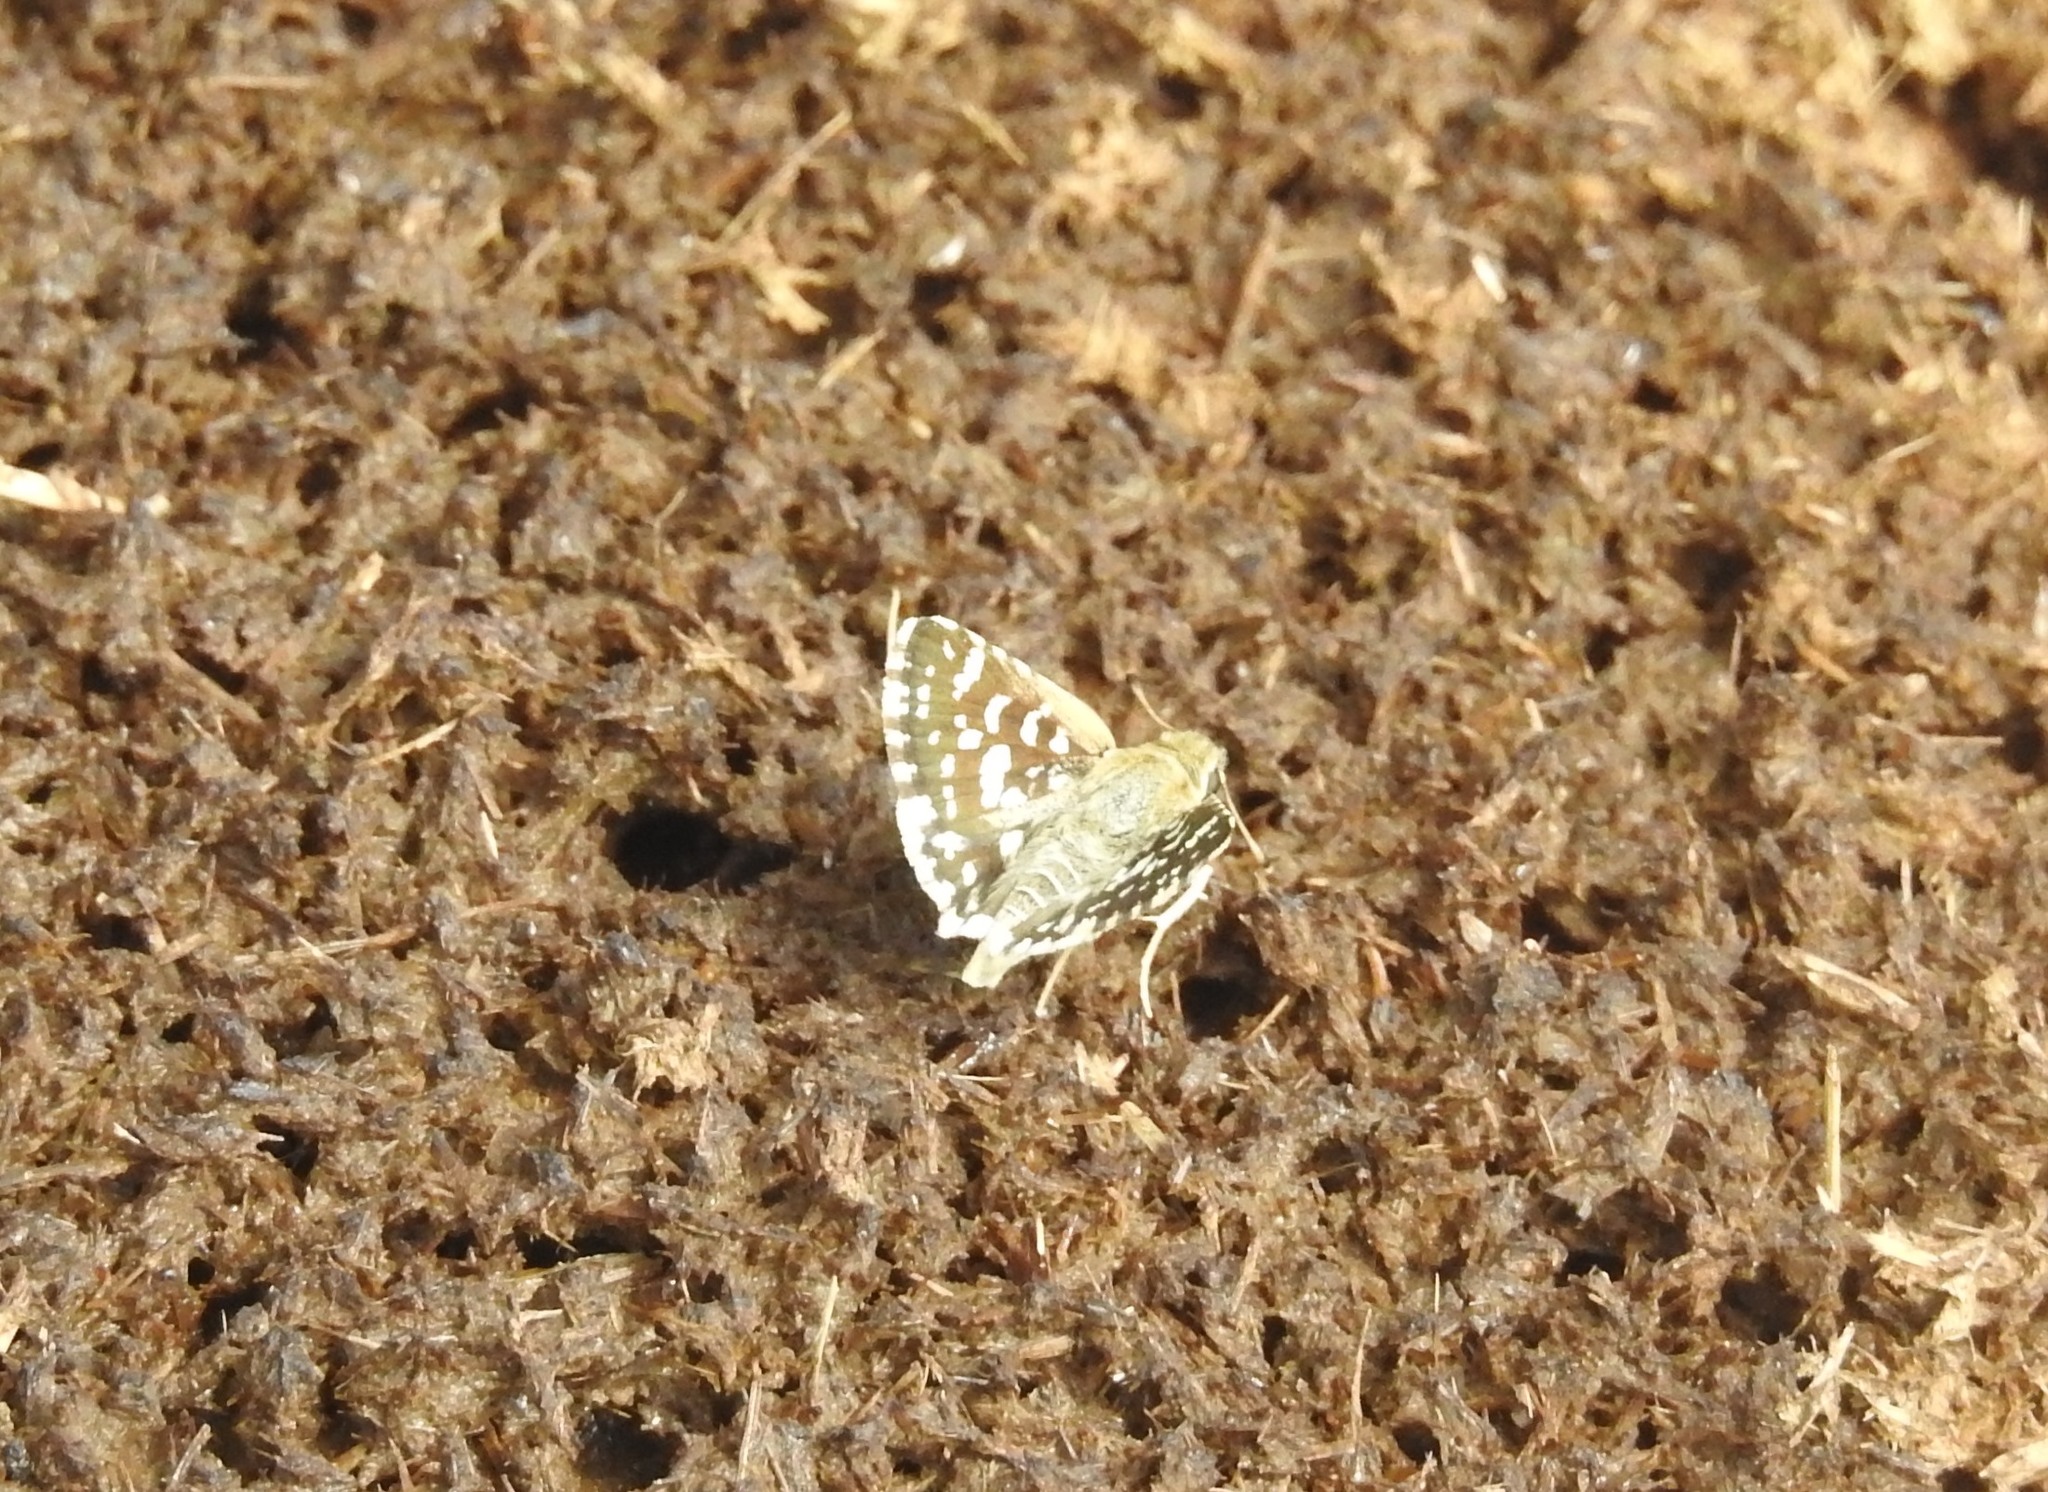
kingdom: Animalia
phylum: Arthropoda
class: Insecta
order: Lepidoptera
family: Hesperiidae
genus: Spialia
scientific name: Spialia galba
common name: Indian skipper
